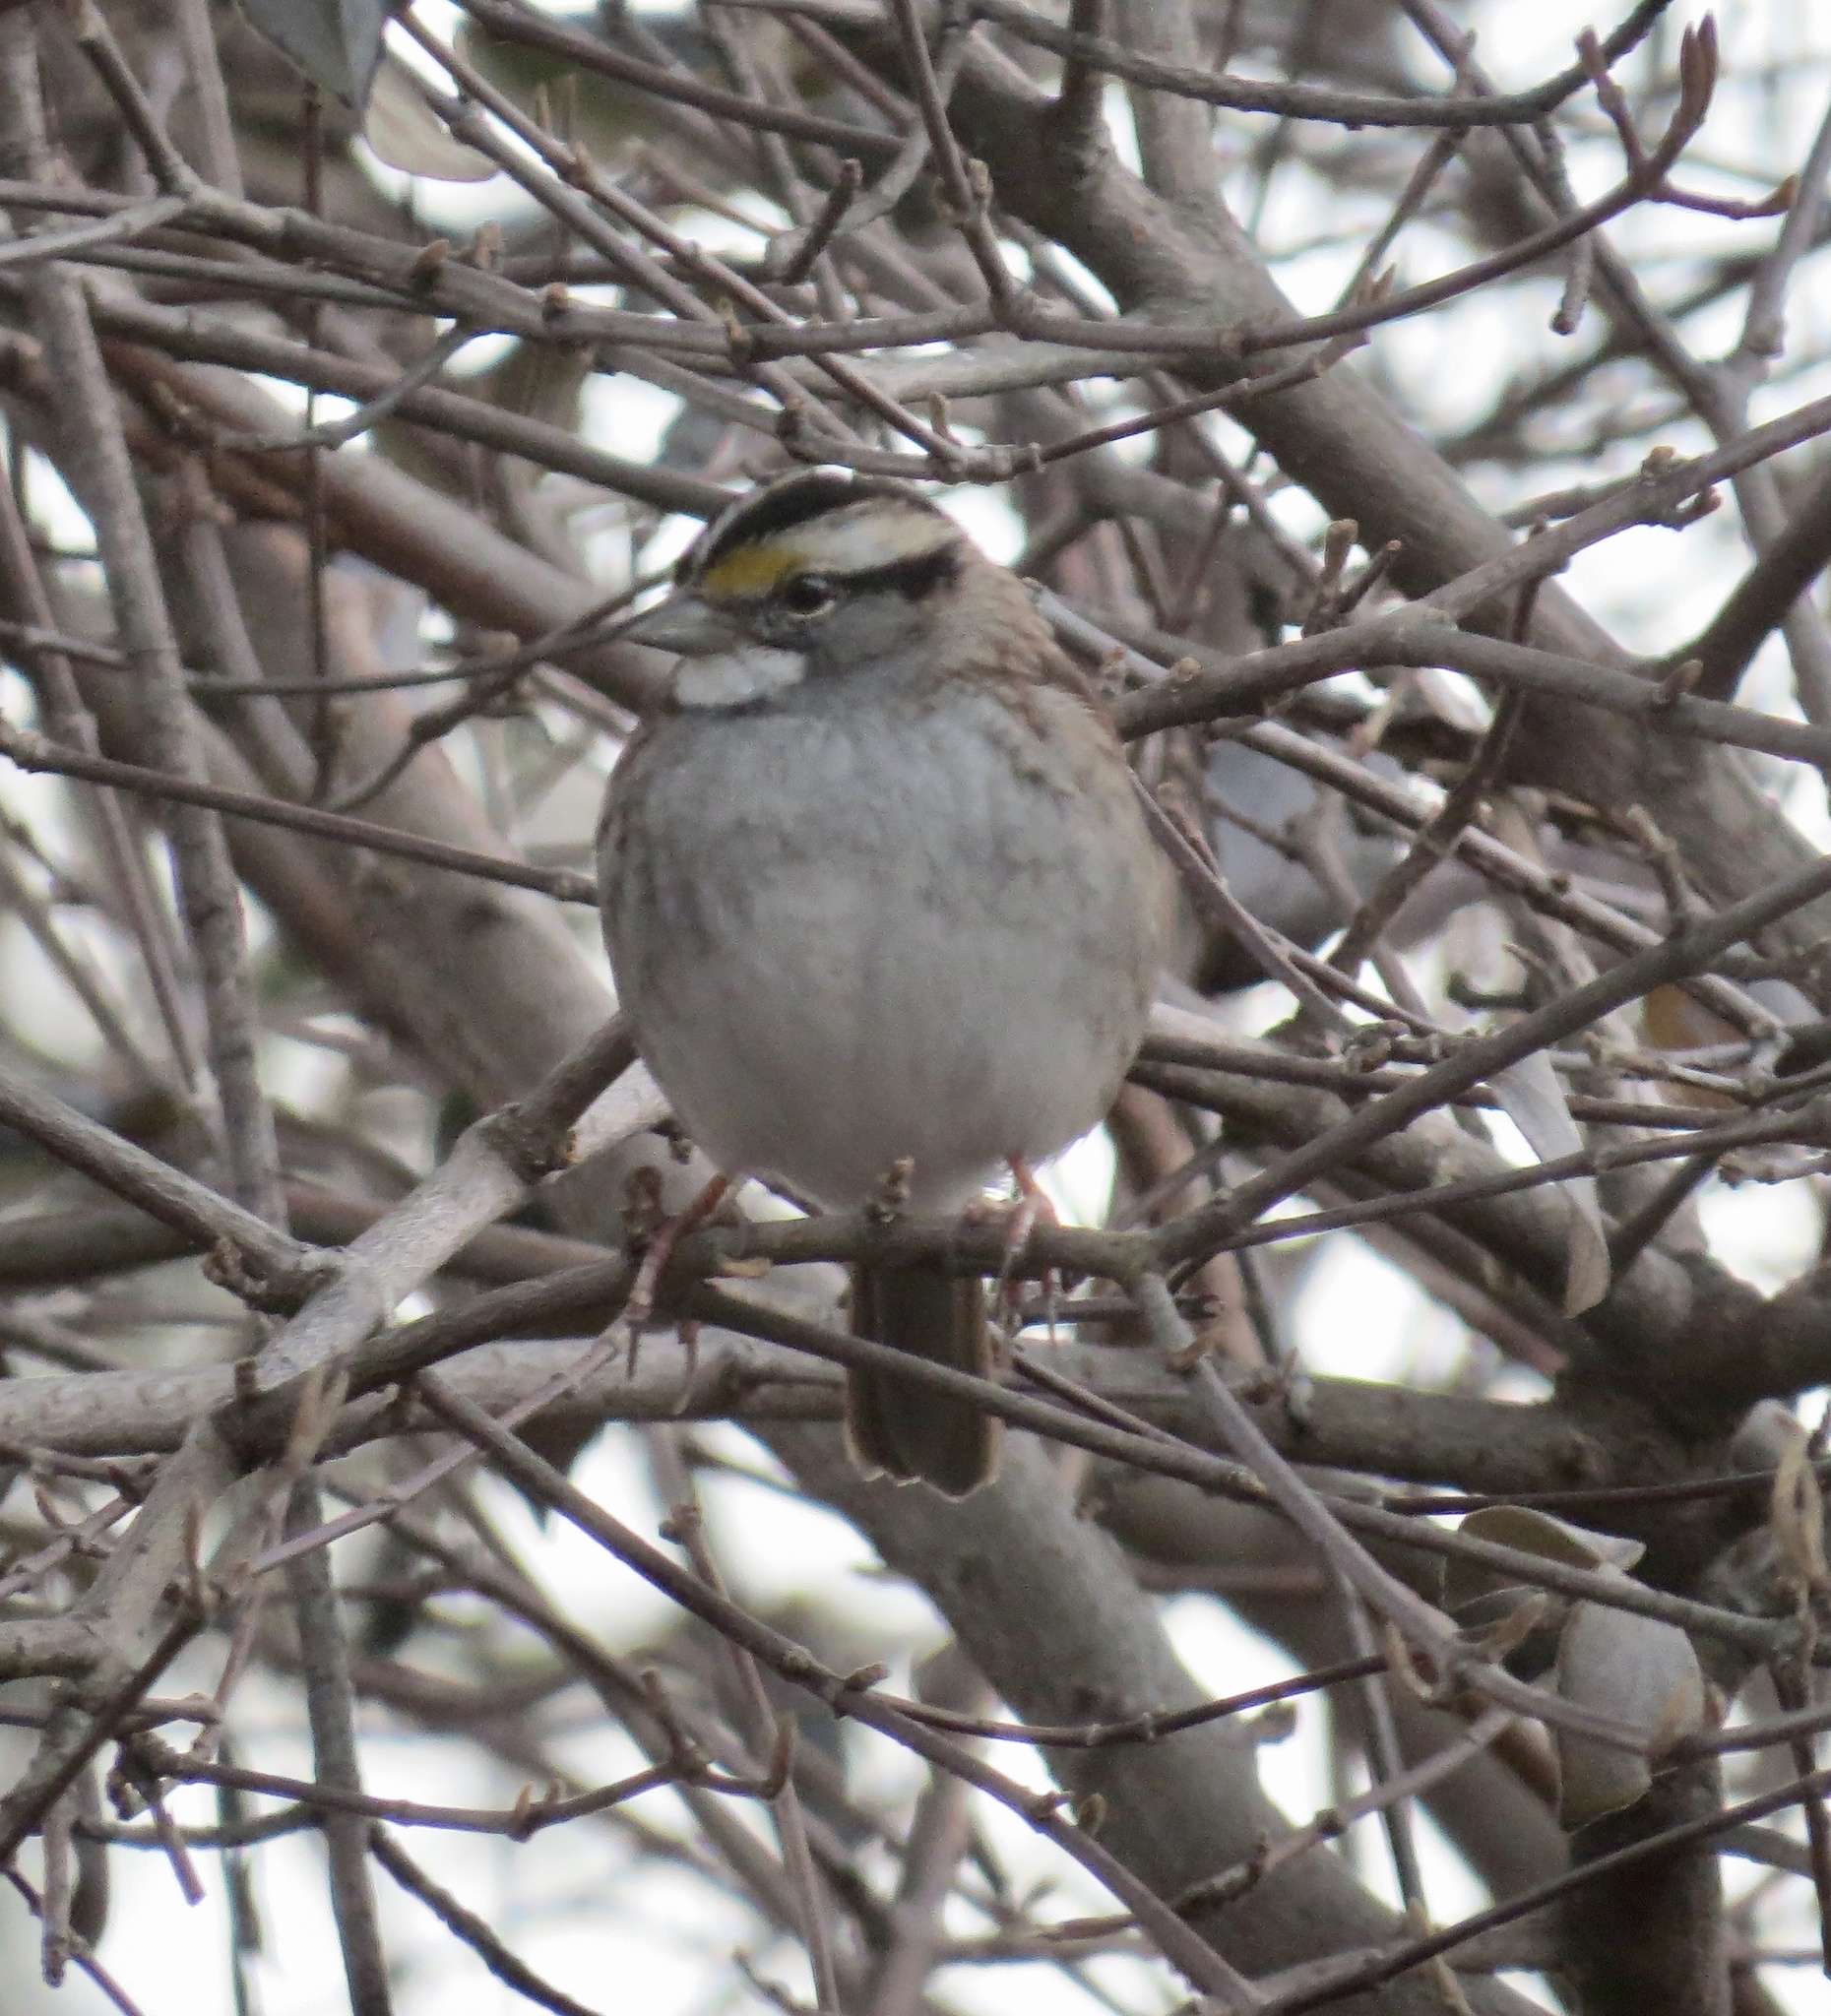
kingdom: Animalia
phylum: Chordata
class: Aves
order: Passeriformes
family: Passerellidae
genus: Zonotrichia
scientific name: Zonotrichia albicollis
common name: White-throated sparrow
